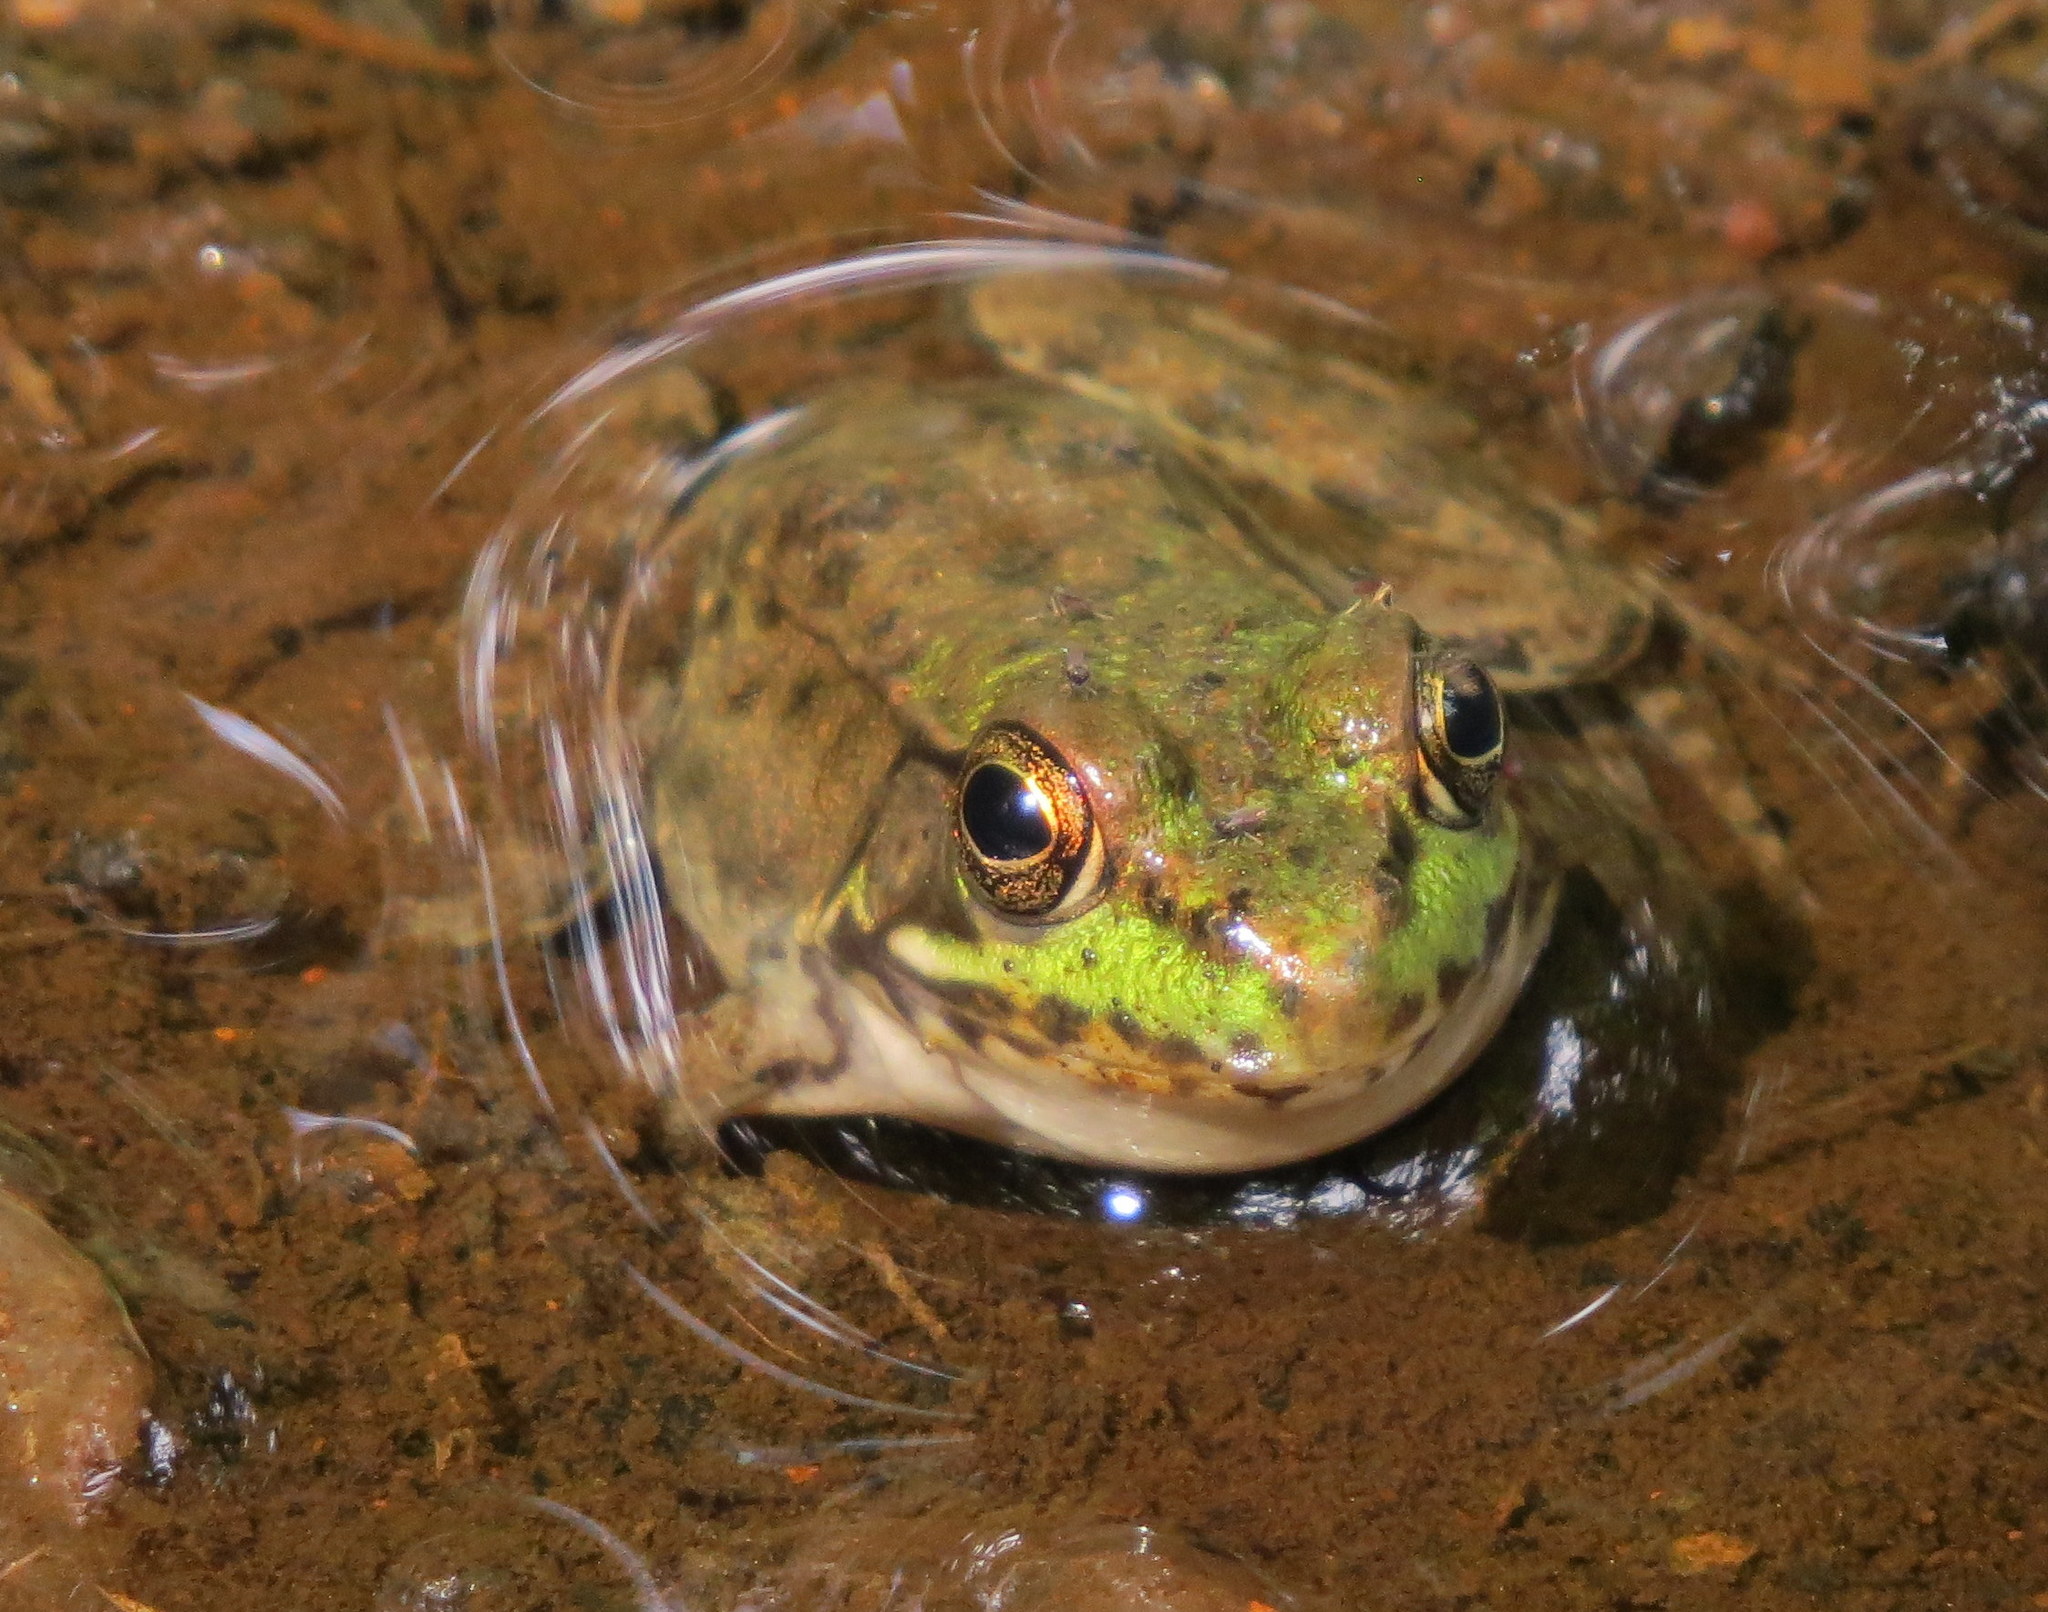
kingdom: Animalia
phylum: Chordata
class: Amphibia
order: Anura
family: Ranidae
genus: Lithobates
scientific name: Lithobates clamitans
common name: Green frog
